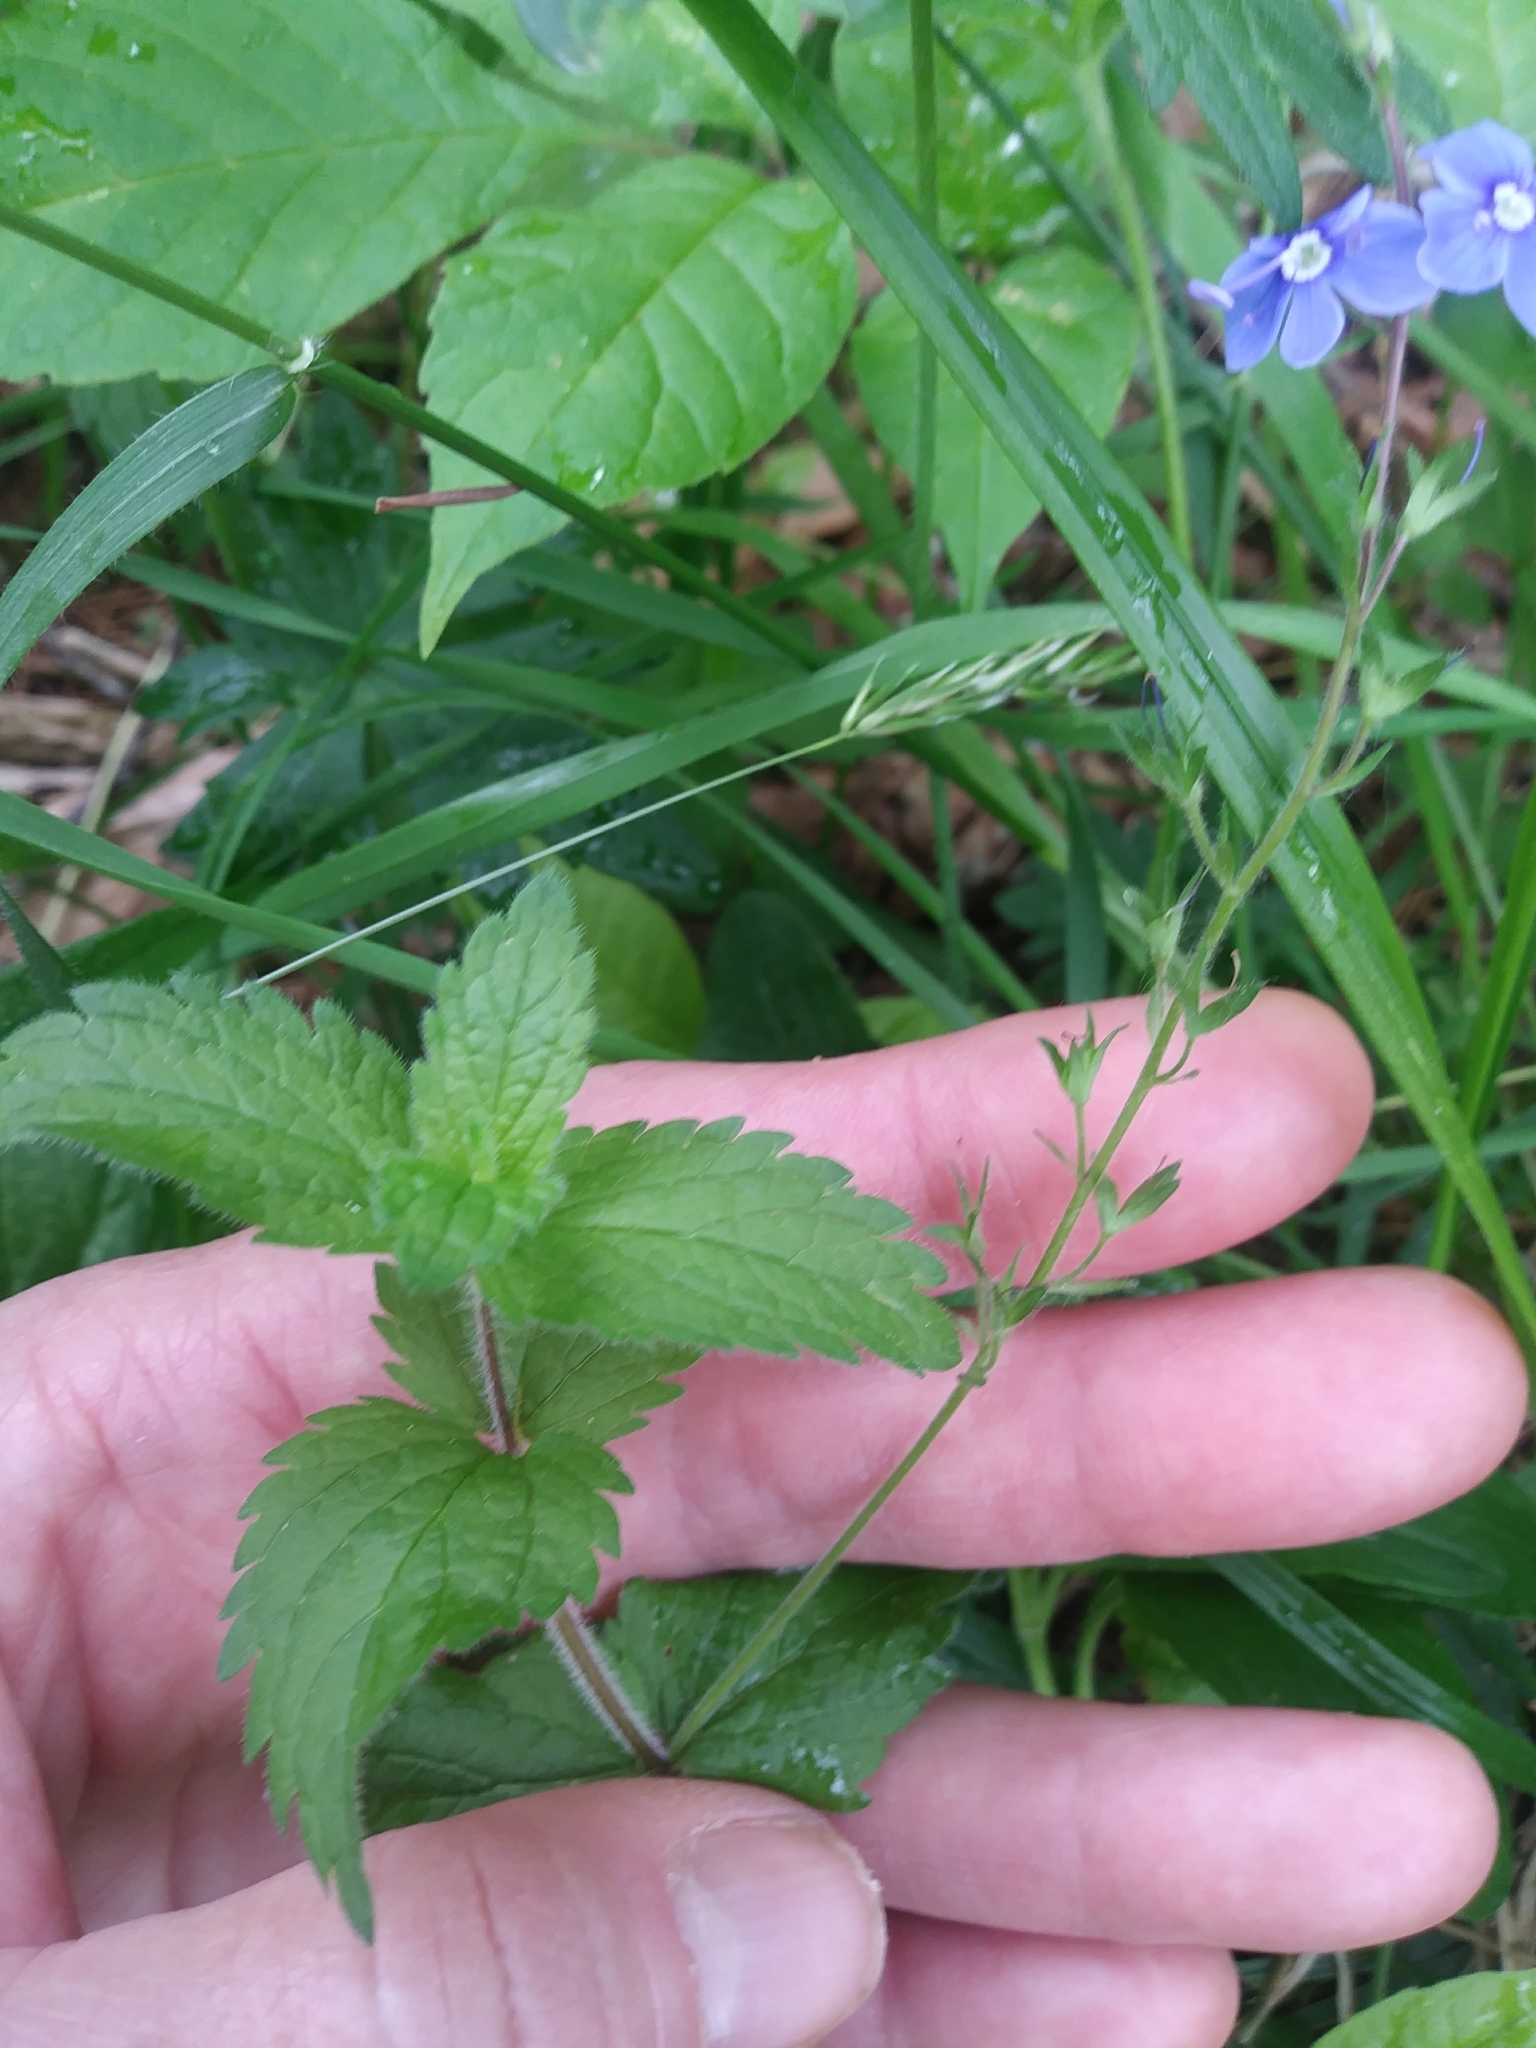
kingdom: Plantae
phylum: Tracheophyta
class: Magnoliopsida
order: Lamiales
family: Plantaginaceae
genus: Veronica
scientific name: Veronica chamaedrys
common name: Germander speedwell
